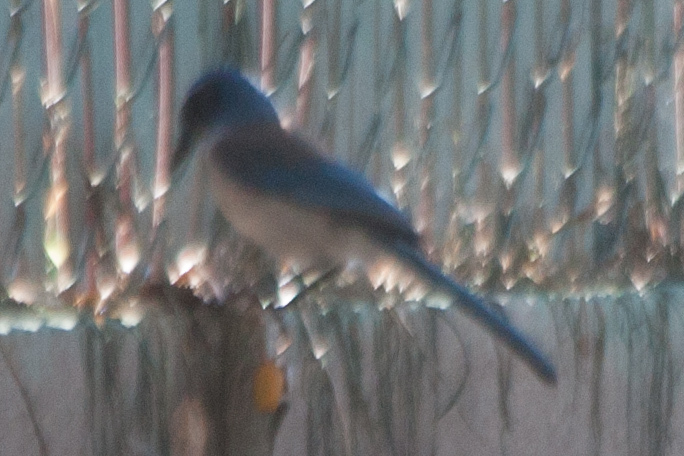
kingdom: Animalia
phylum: Chordata
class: Aves
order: Passeriformes
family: Corvidae
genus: Aphelocoma
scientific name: Aphelocoma californica
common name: California scrub-jay
